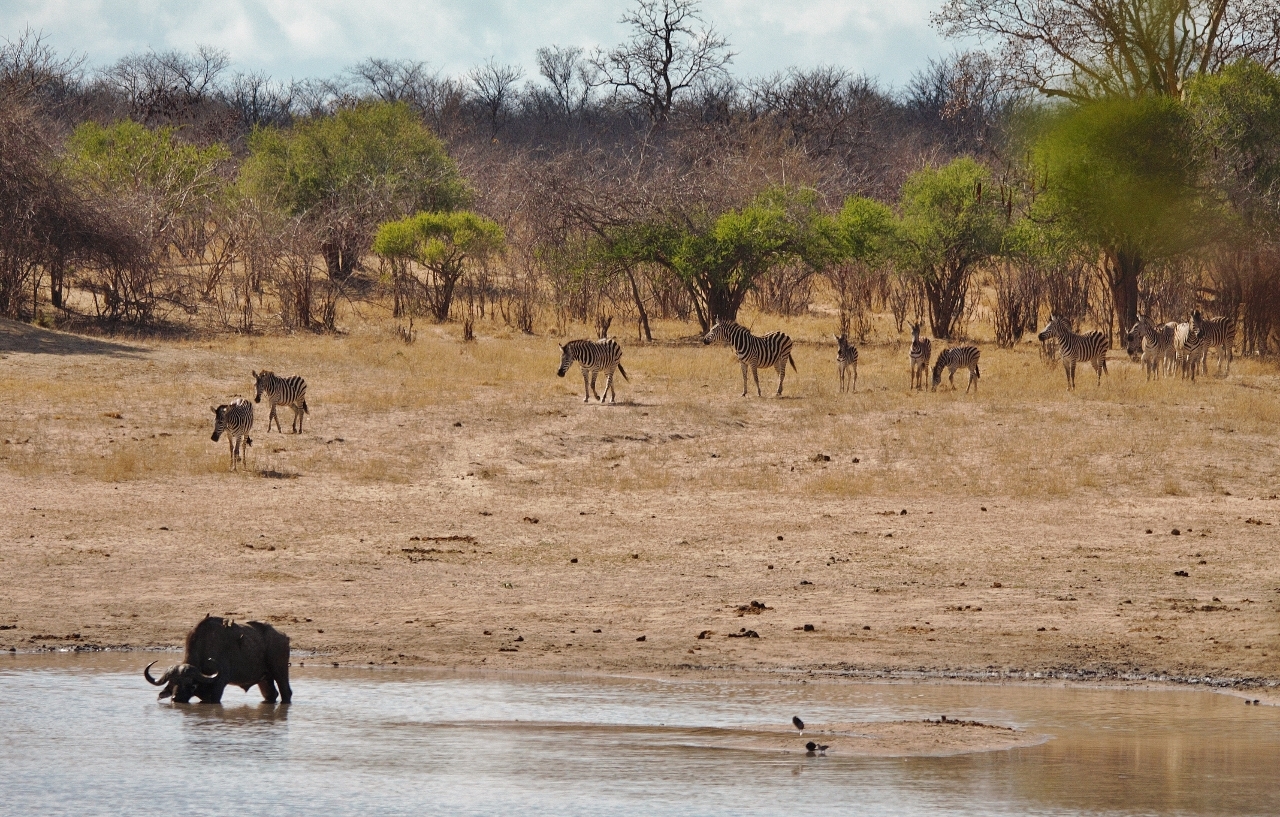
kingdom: Animalia
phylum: Chordata
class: Mammalia
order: Perissodactyla
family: Equidae
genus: Equus
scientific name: Equus quagga
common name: Plains zebra
